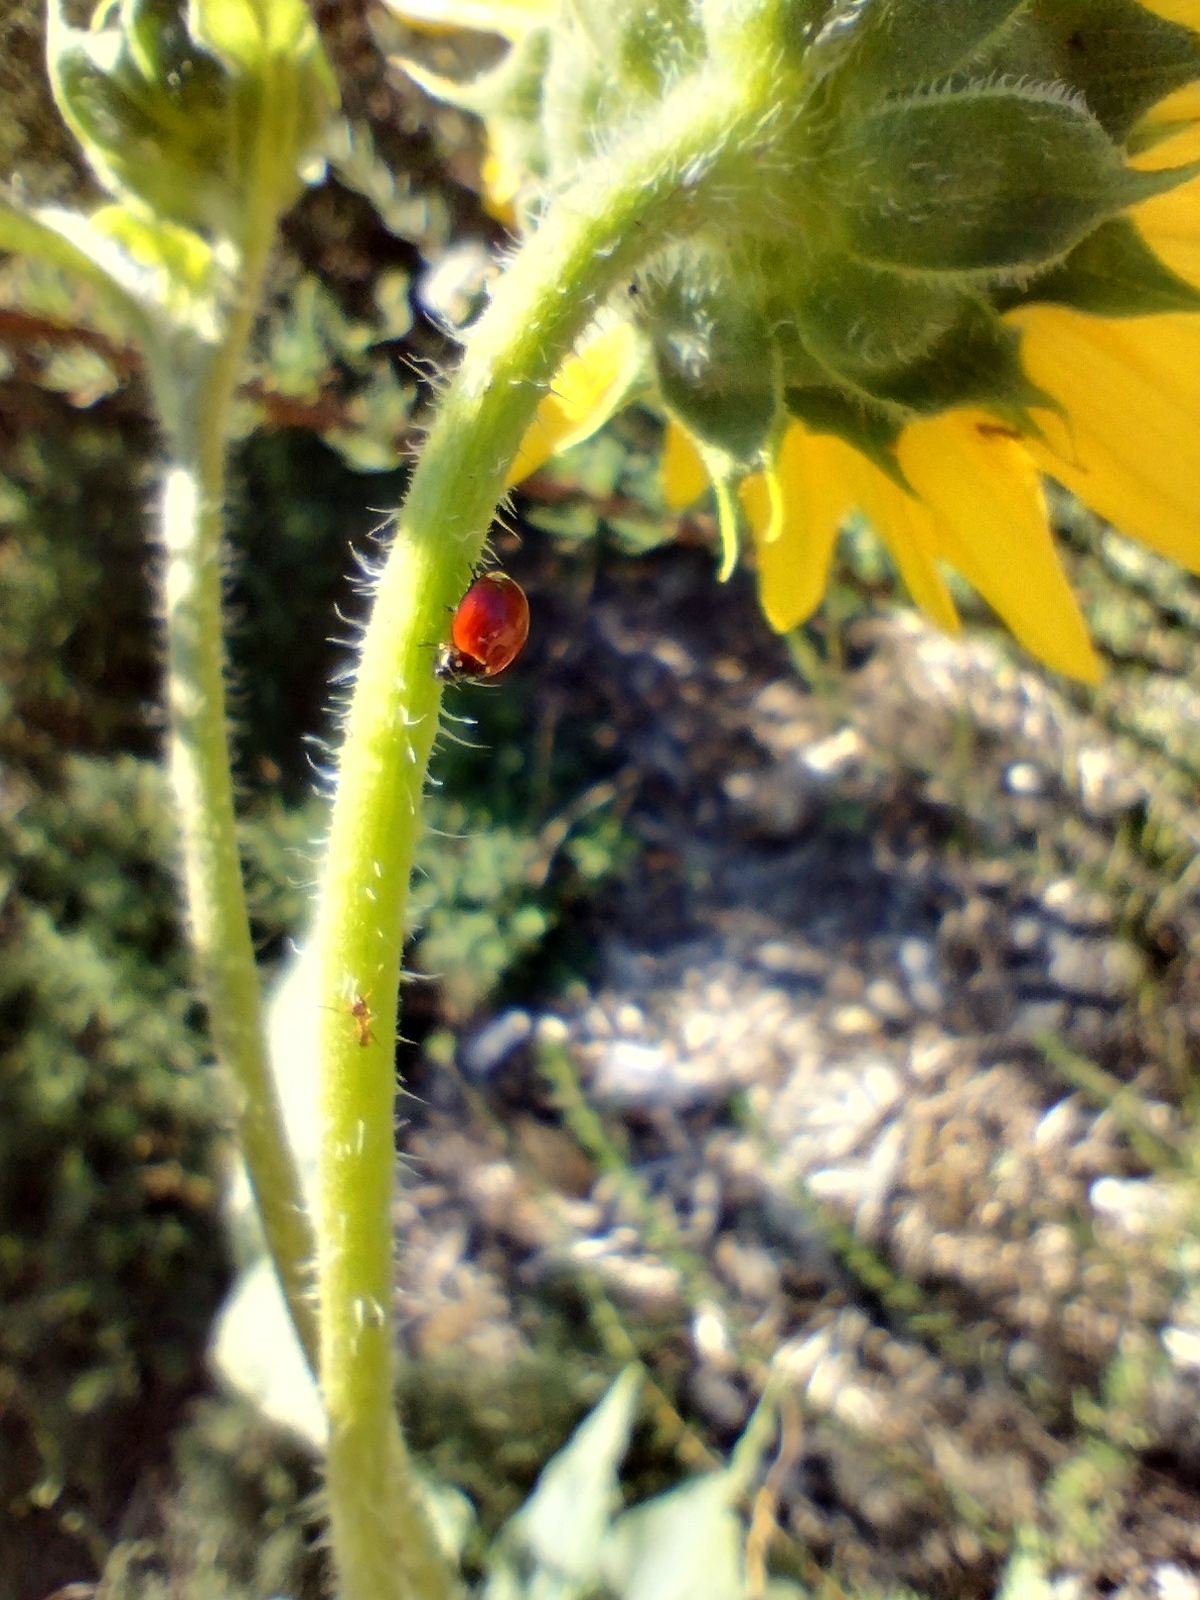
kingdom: Animalia
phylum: Arthropoda
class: Insecta
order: Coleoptera
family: Coccinellidae
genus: Cycloneda
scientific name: Cycloneda sanguinea
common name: Ladybird beetle
